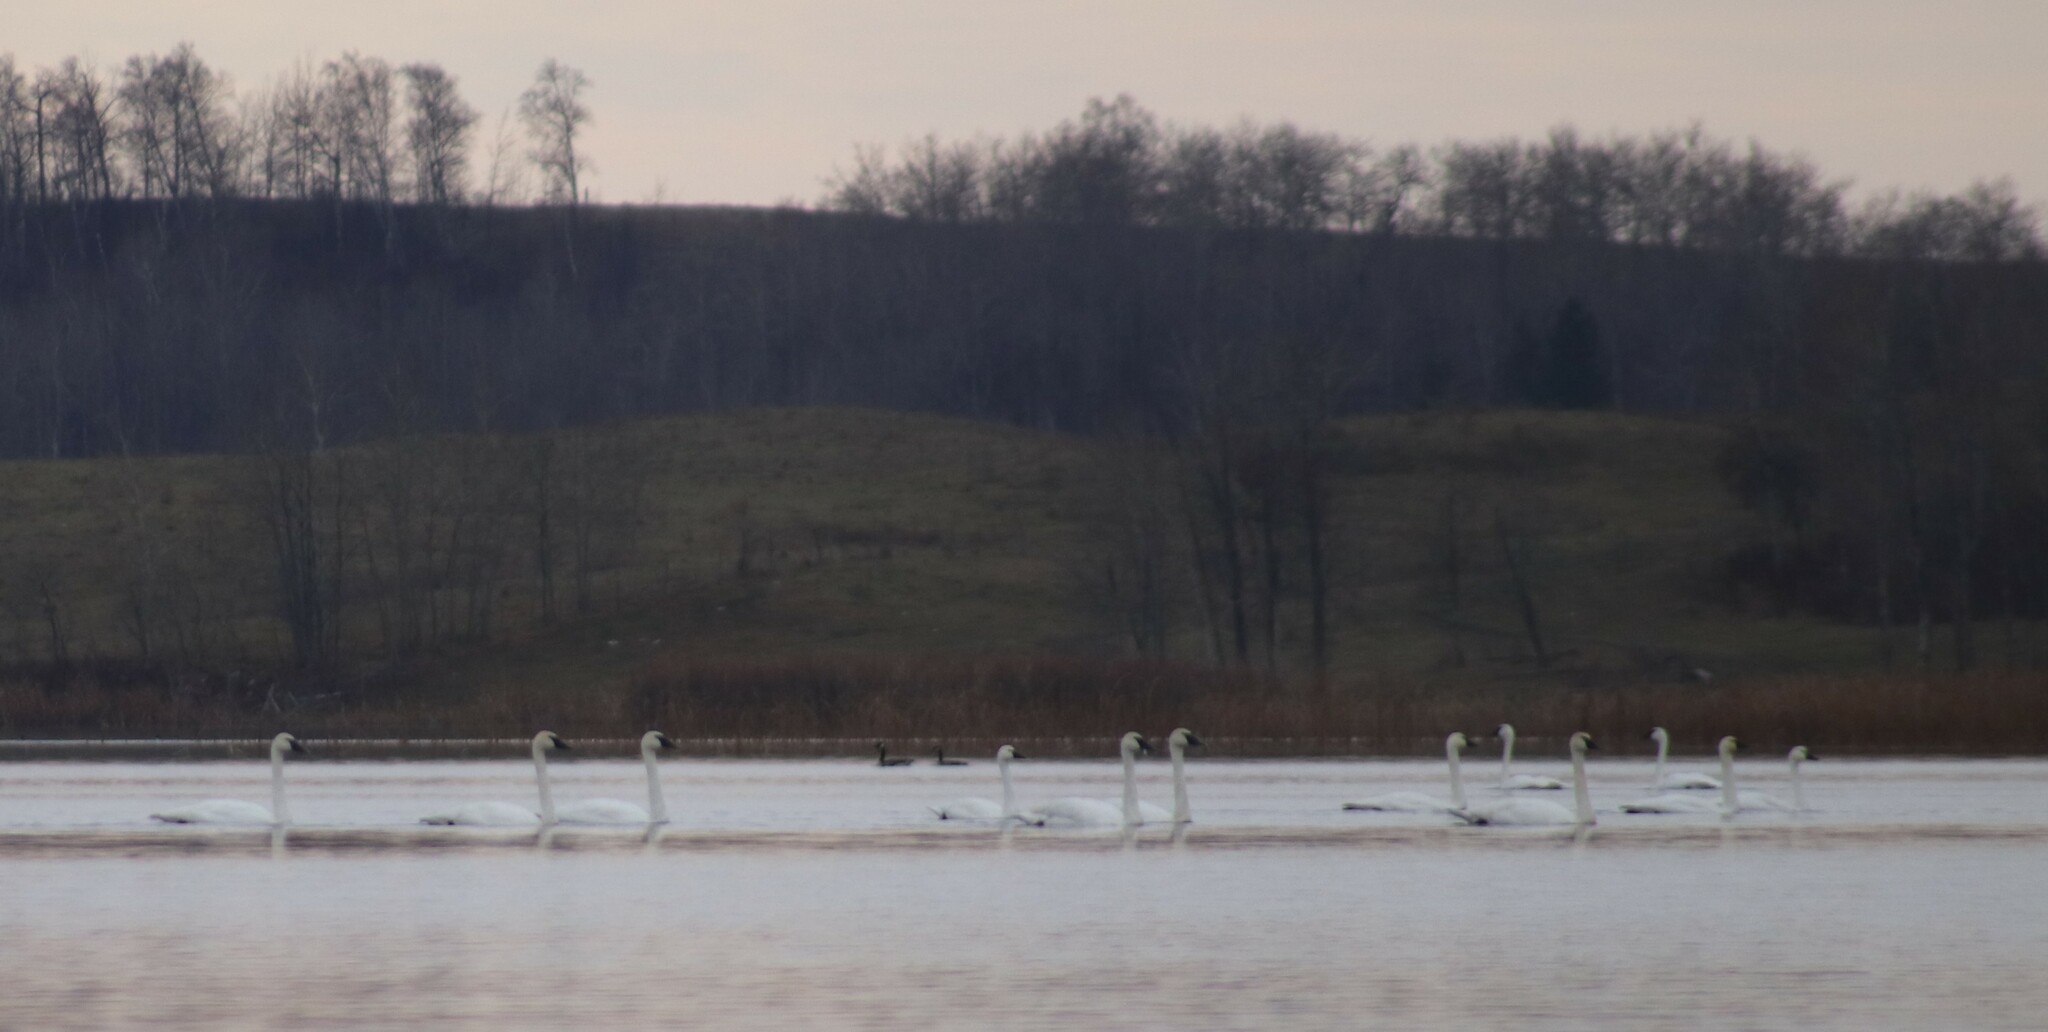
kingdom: Animalia
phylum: Chordata
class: Aves
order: Anseriformes
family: Anatidae
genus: Cygnus
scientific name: Cygnus buccinator
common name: Trumpeter swan
